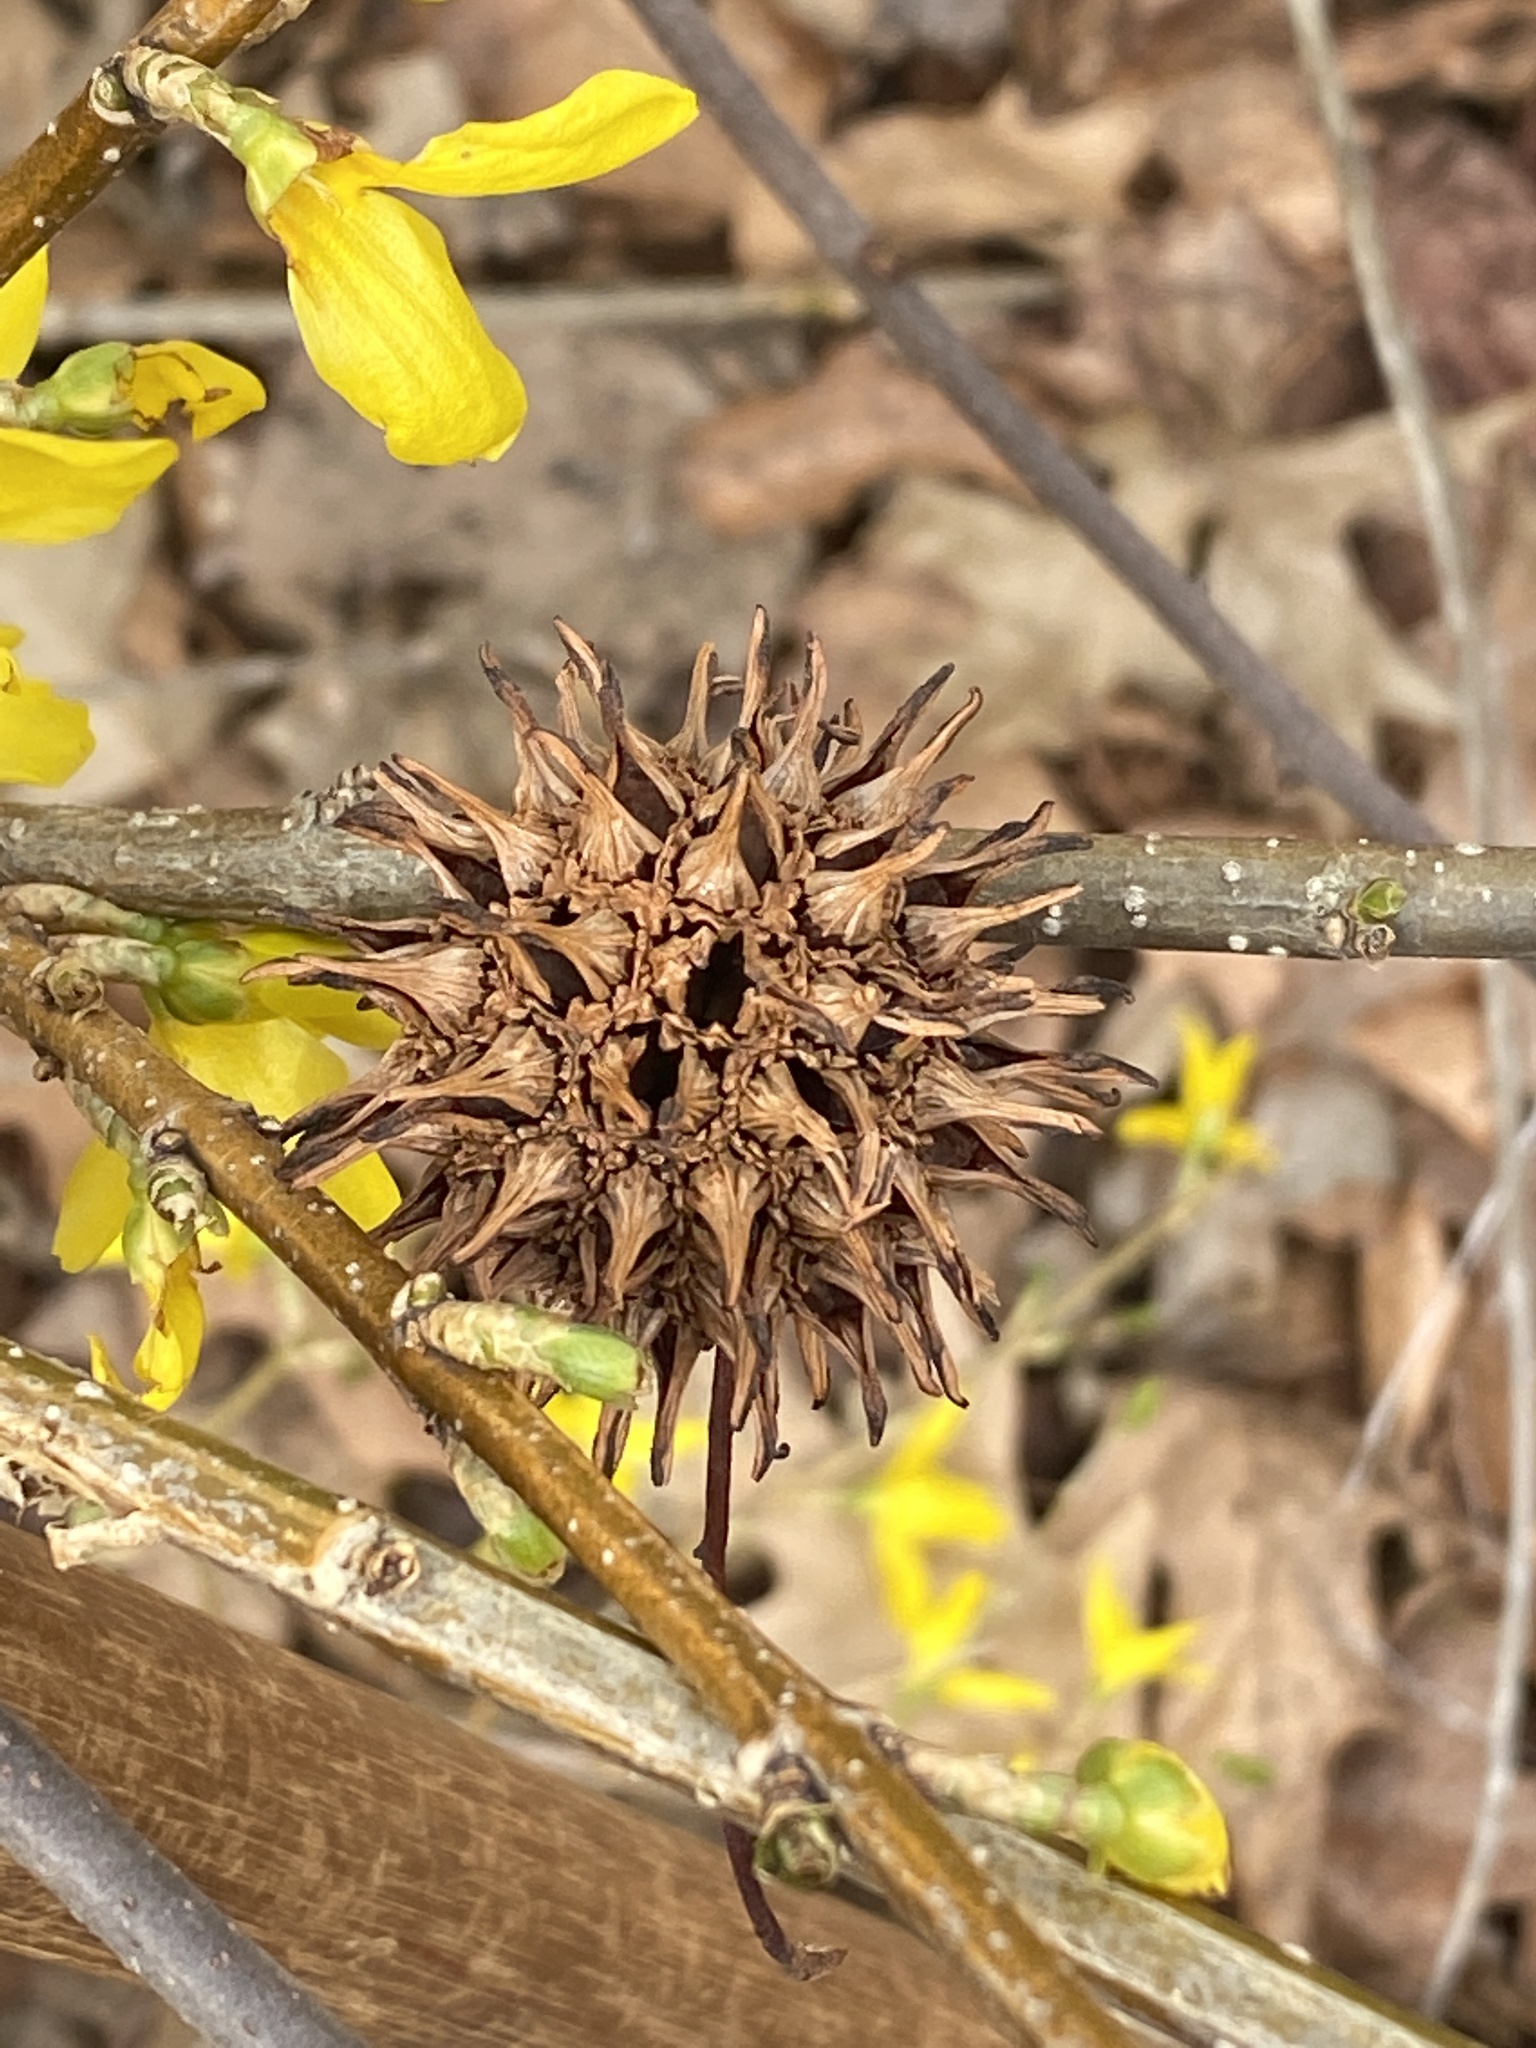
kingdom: Plantae
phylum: Tracheophyta
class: Magnoliopsida
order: Saxifragales
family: Altingiaceae
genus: Liquidambar
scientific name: Liquidambar styraciflua
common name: Sweet gum
